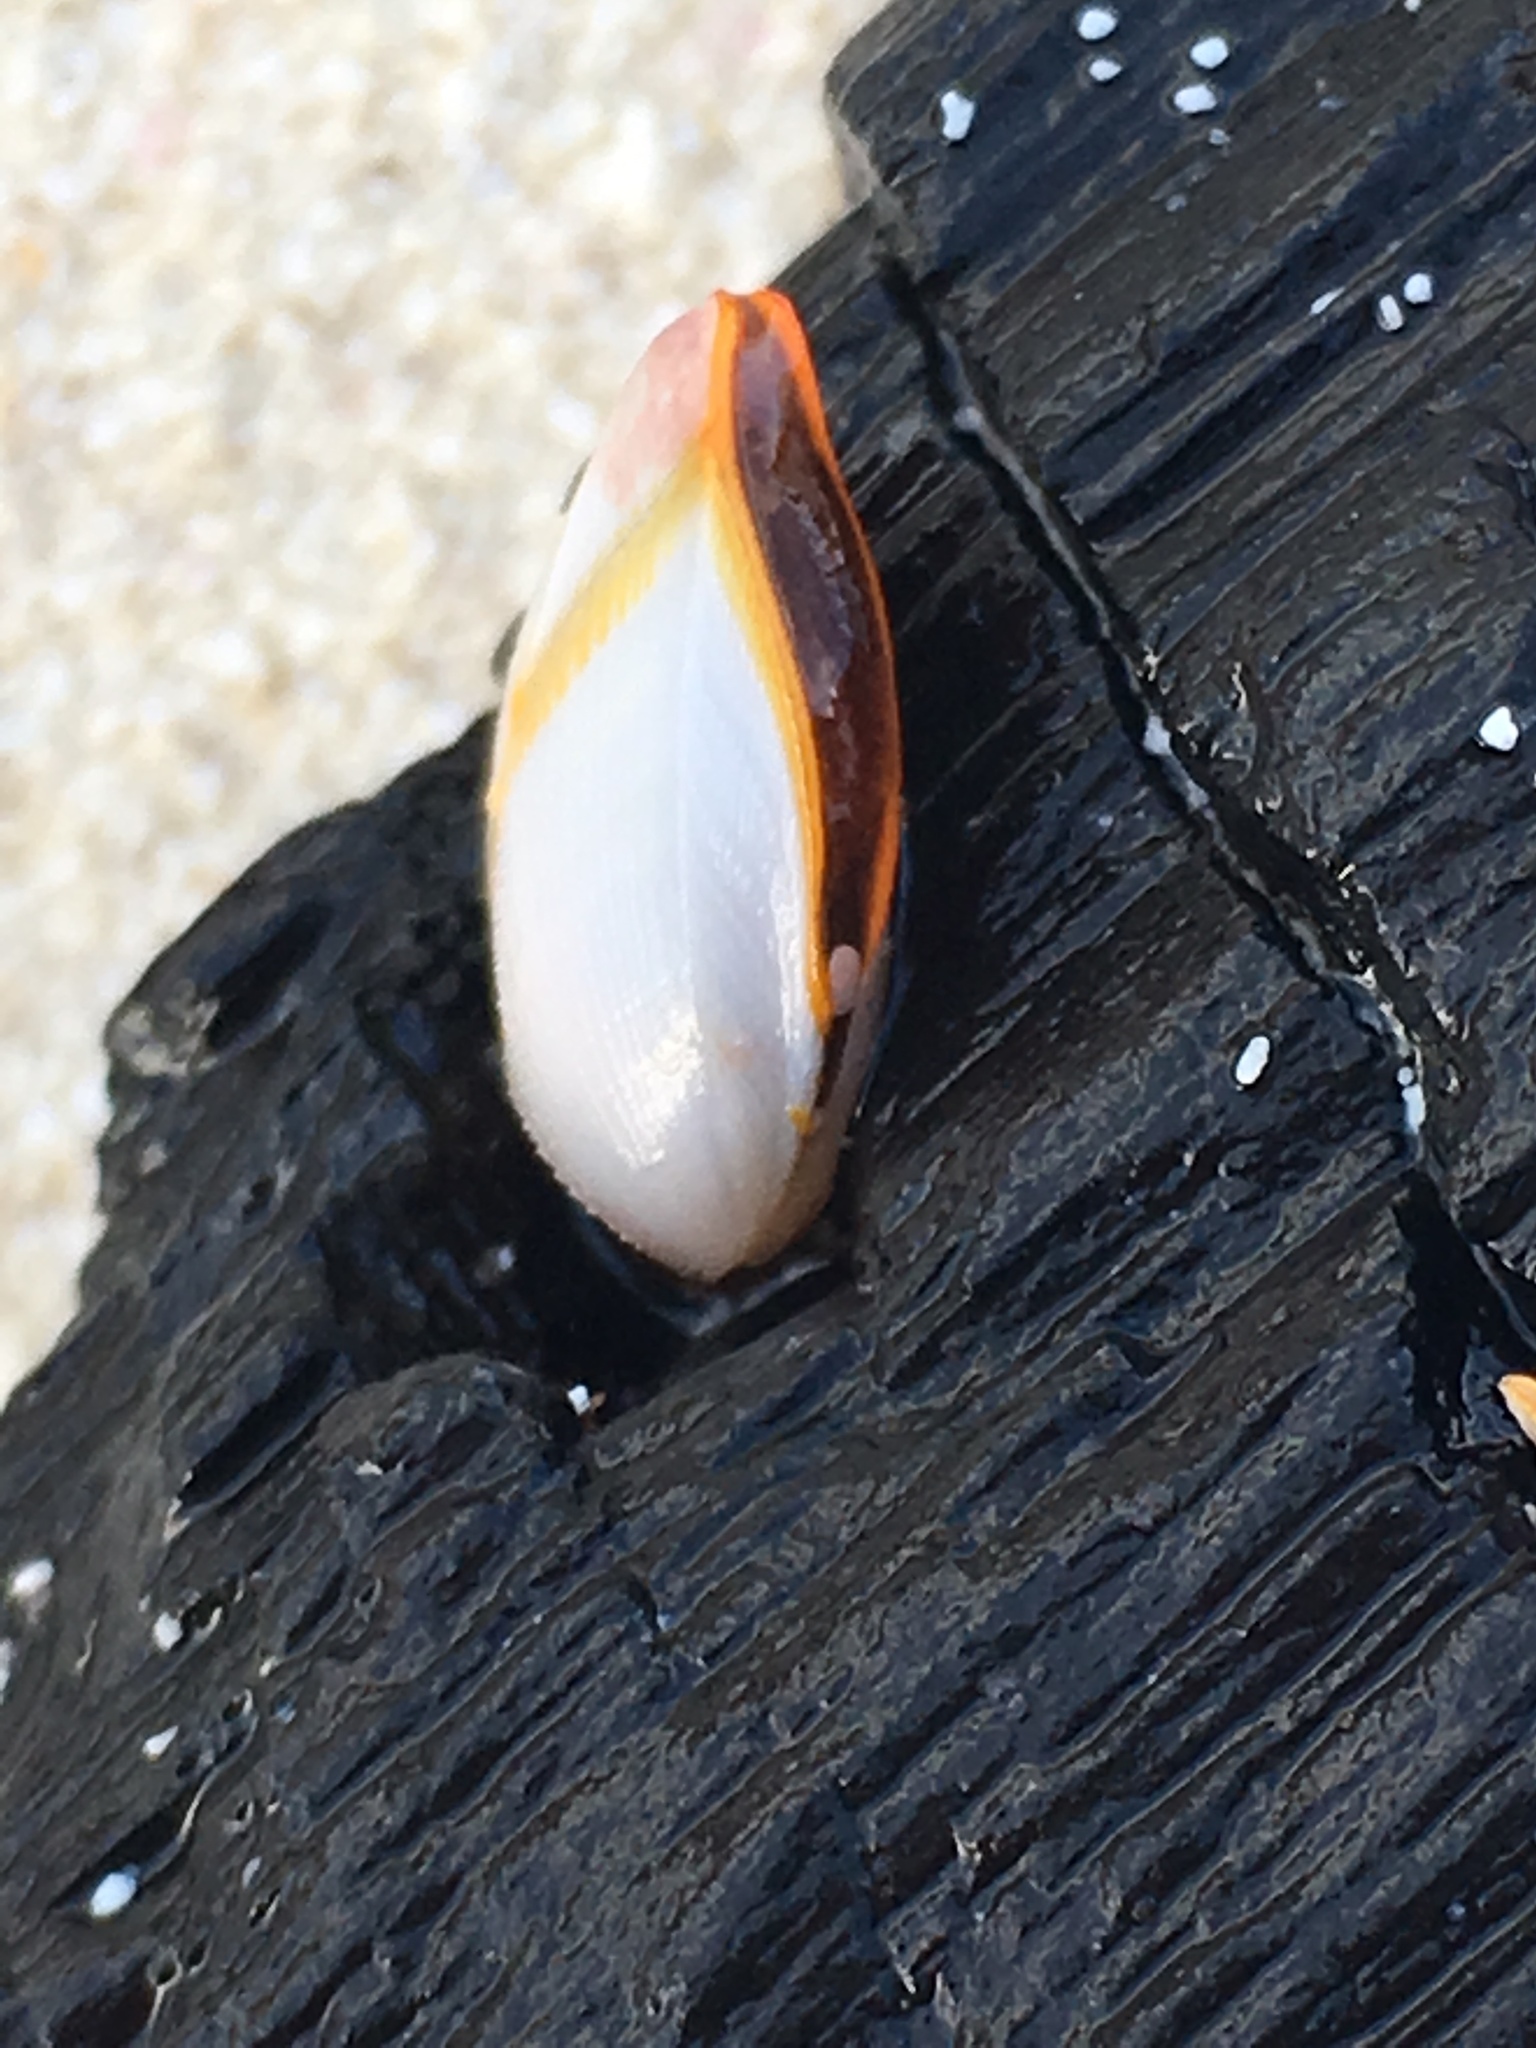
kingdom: Animalia
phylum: Arthropoda
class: Maxillopoda
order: Pedunculata
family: Lepadidae
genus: Lepas
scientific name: Lepas anserifera
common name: Goose barnacle
